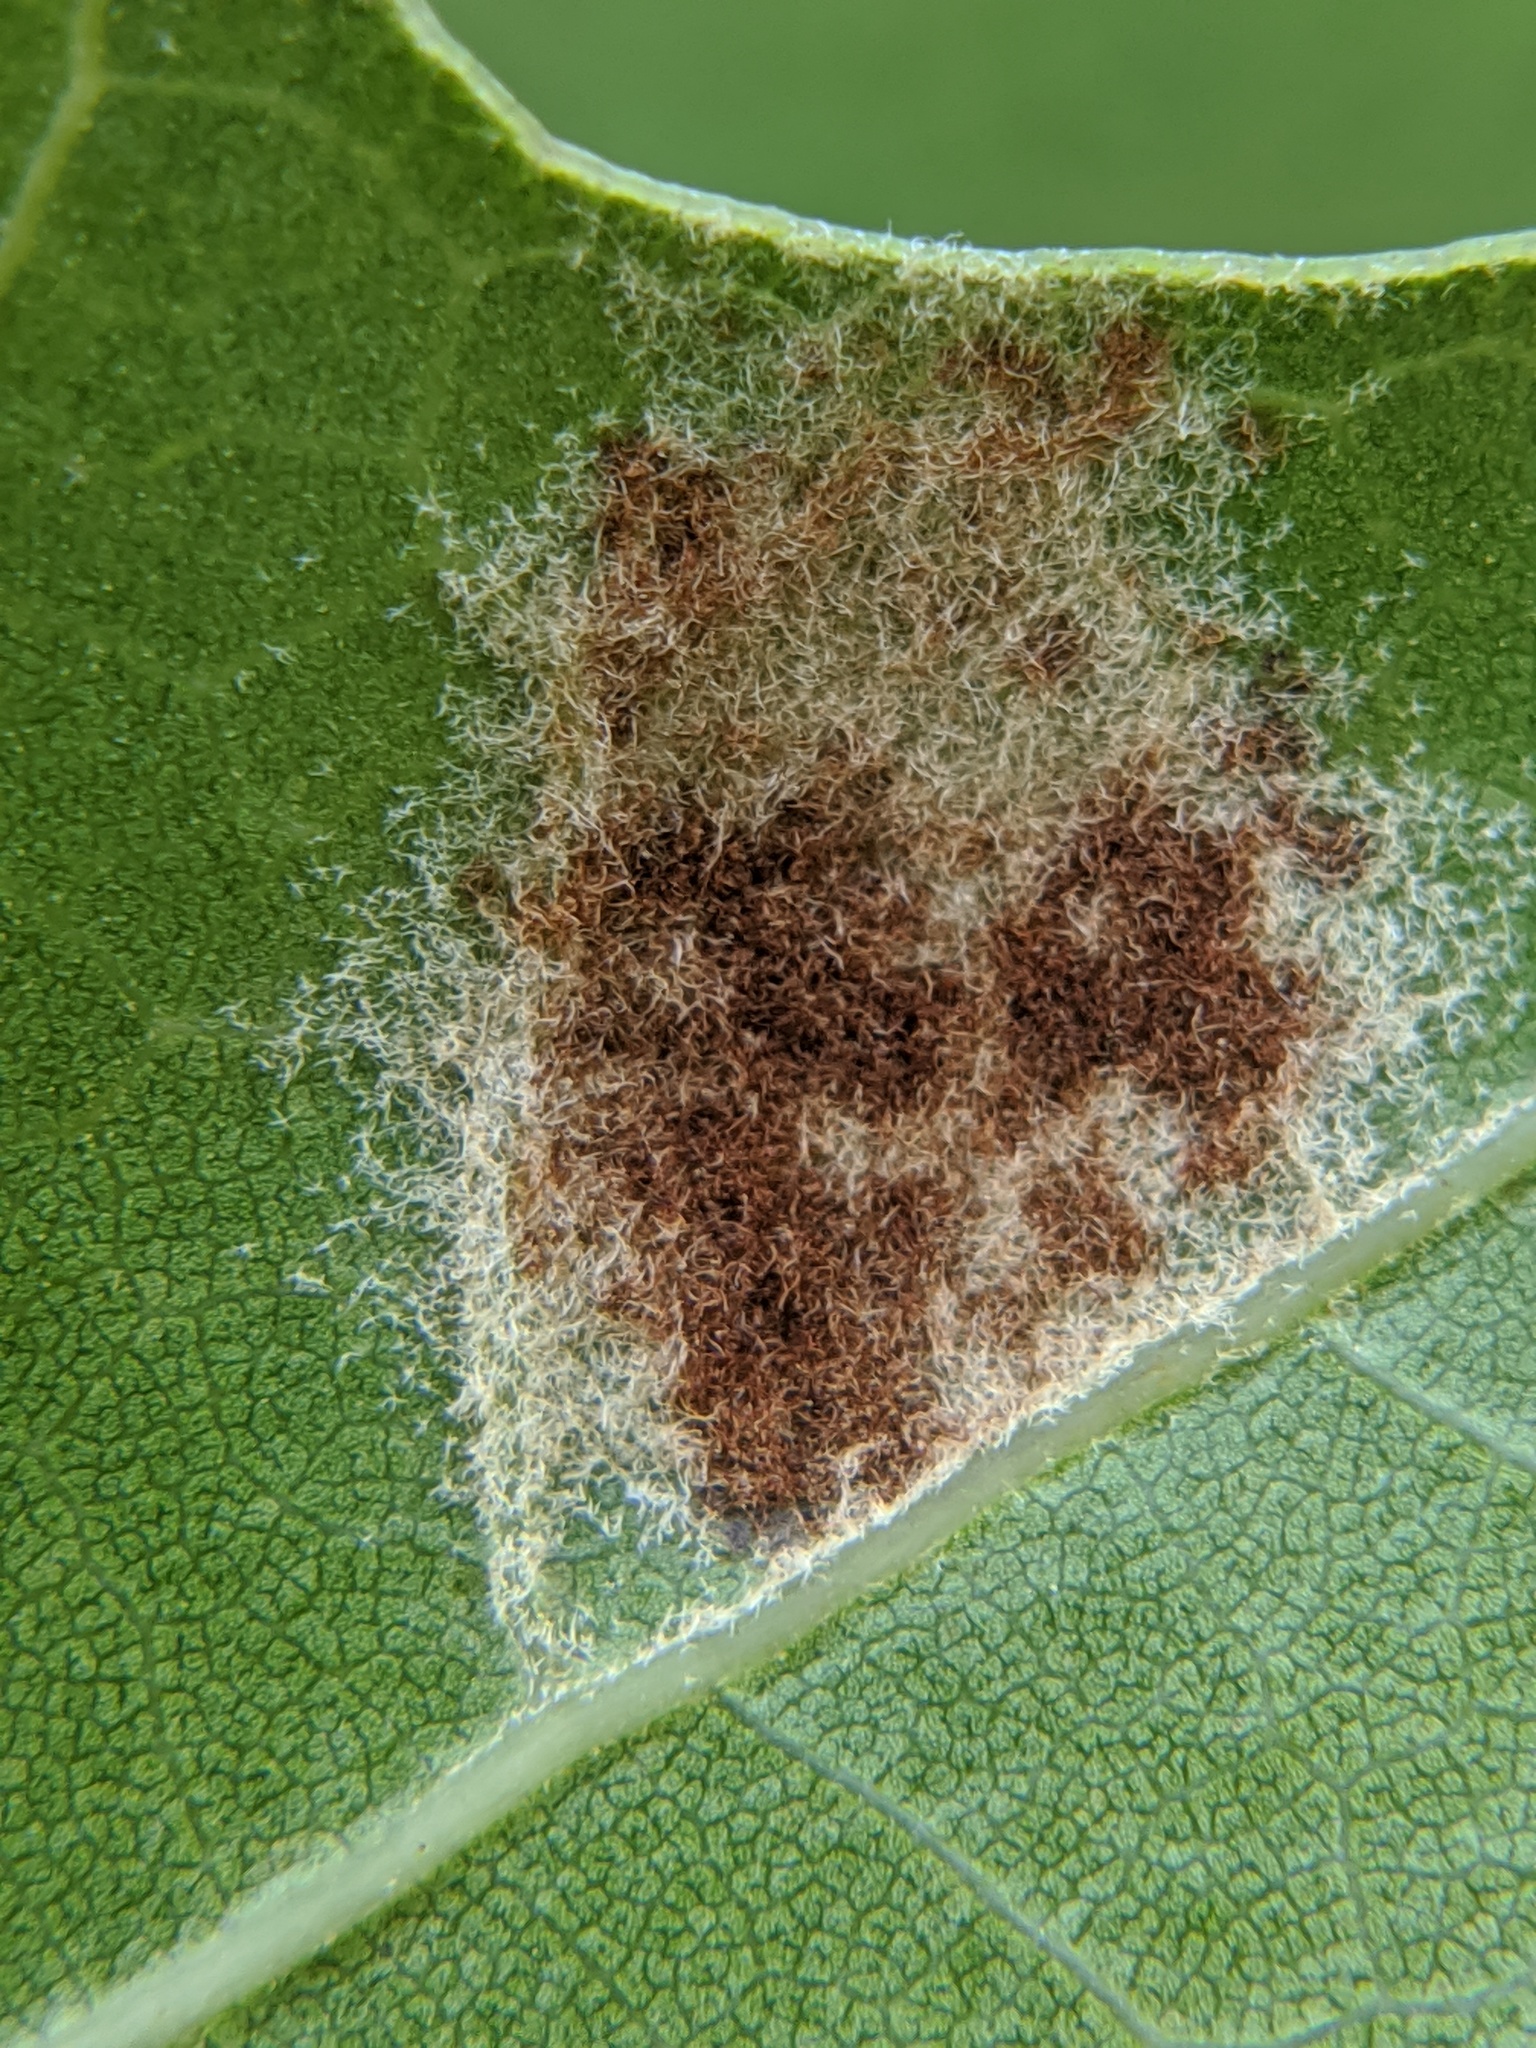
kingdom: Animalia
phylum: Arthropoda
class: Arachnida
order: Trombidiformes
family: Eriophyidae
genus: Aceria
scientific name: Aceria
